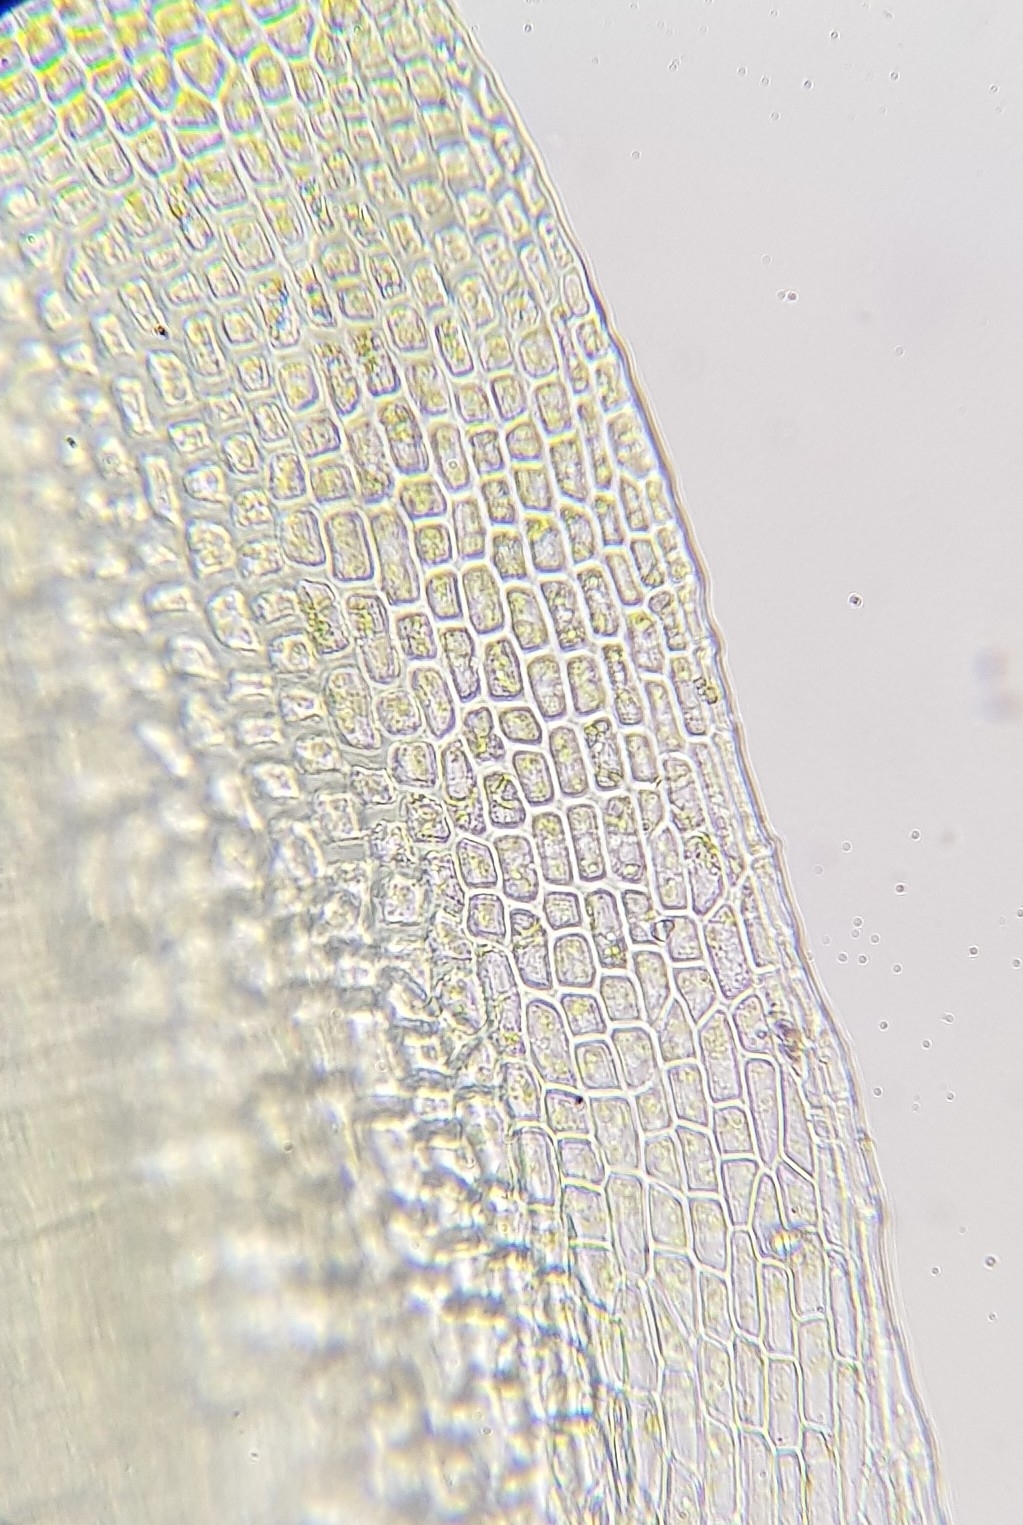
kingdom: Plantae
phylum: Bryophyta
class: Bryopsida
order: Pottiales
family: Pottiaceae
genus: Trichostomum
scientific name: Trichostomum brachydontium
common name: Variable crisp-moss
